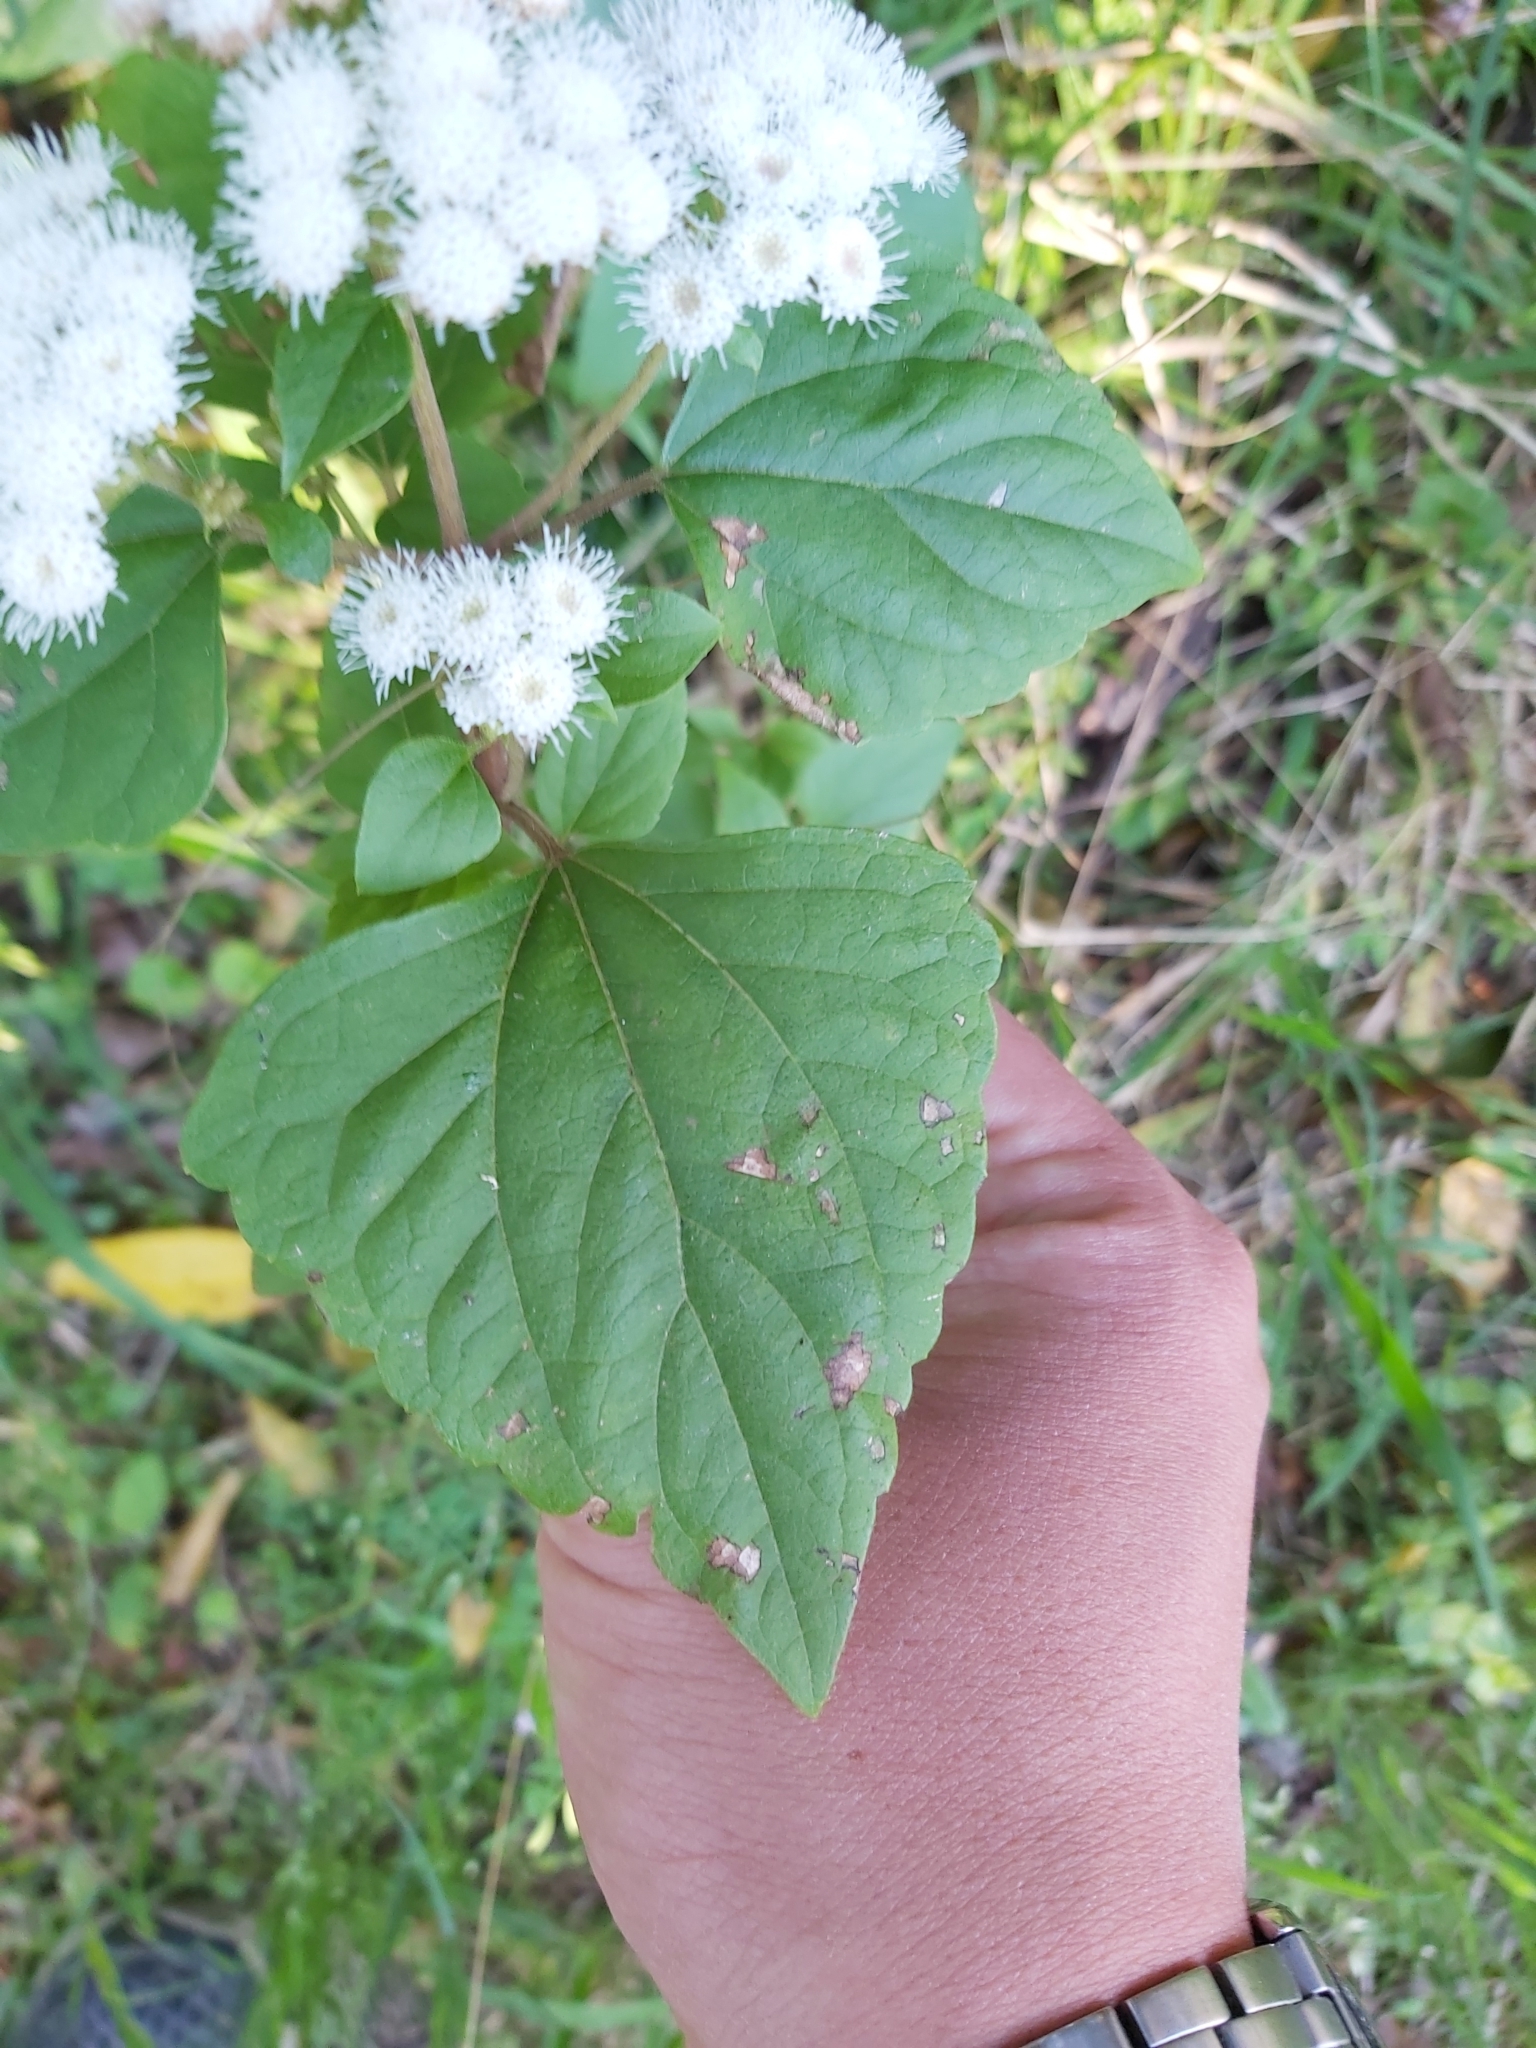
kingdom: Plantae
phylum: Tracheophyta
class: Magnoliopsida
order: Asterales
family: Asteraceae
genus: Ageratina
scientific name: Ageratina adenophora
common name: Sticky snakeroot
